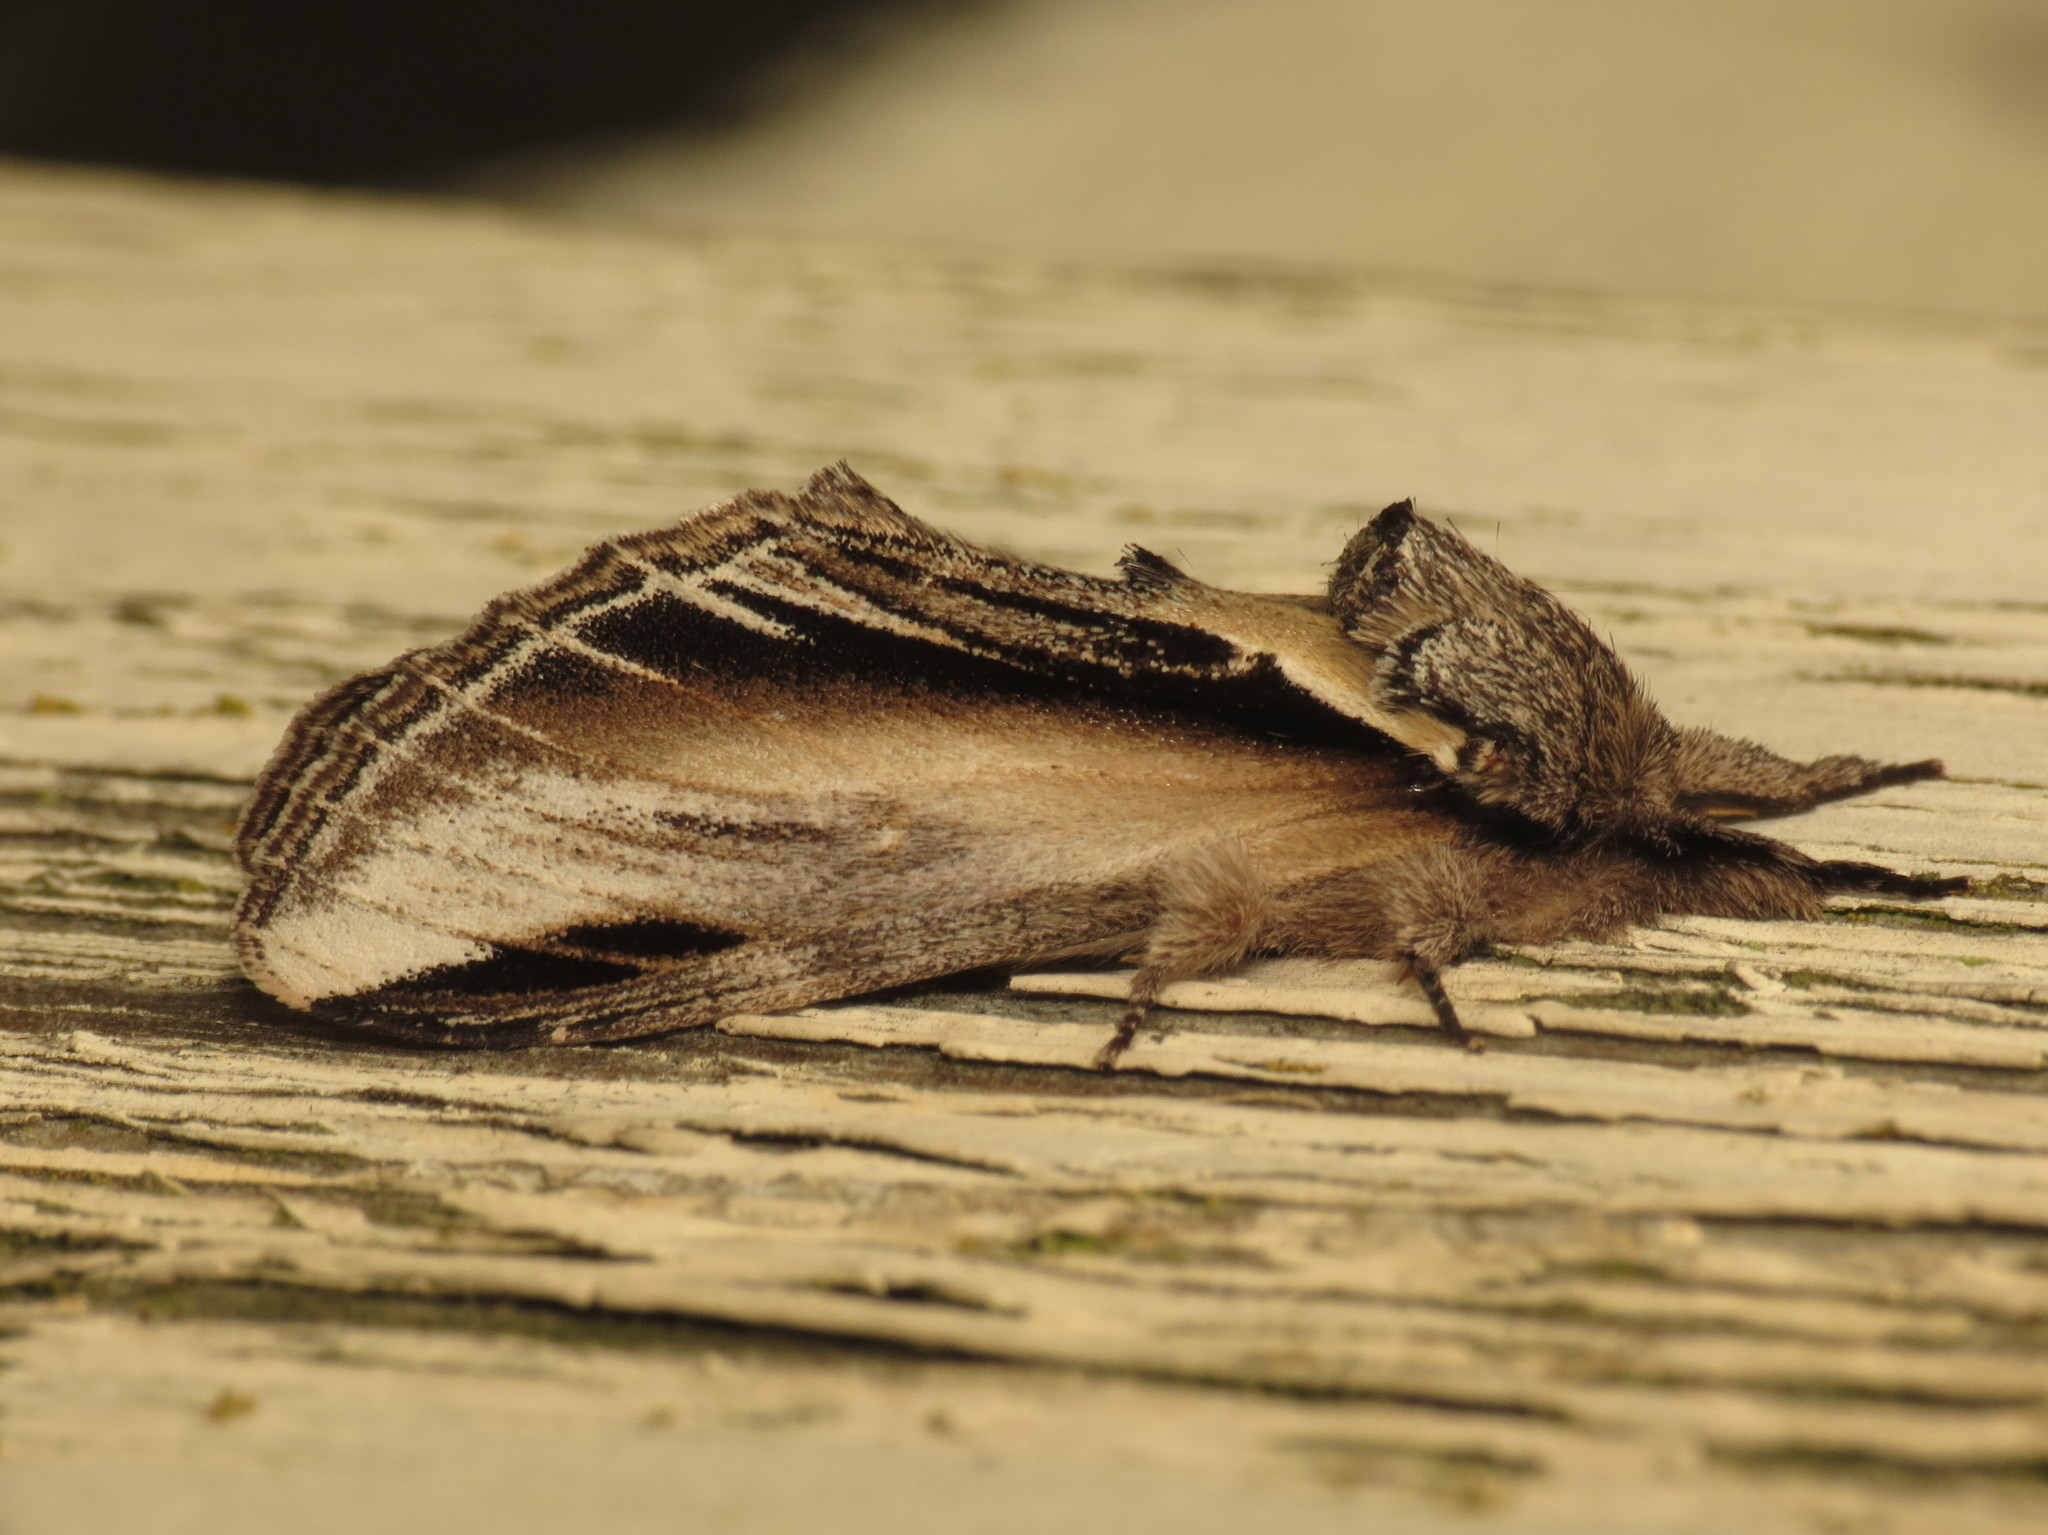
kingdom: Animalia
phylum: Arthropoda
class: Insecta
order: Lepidoptera
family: Notodontidae
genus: Pheosia
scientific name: Pheosia tremula
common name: Swallow prominent
